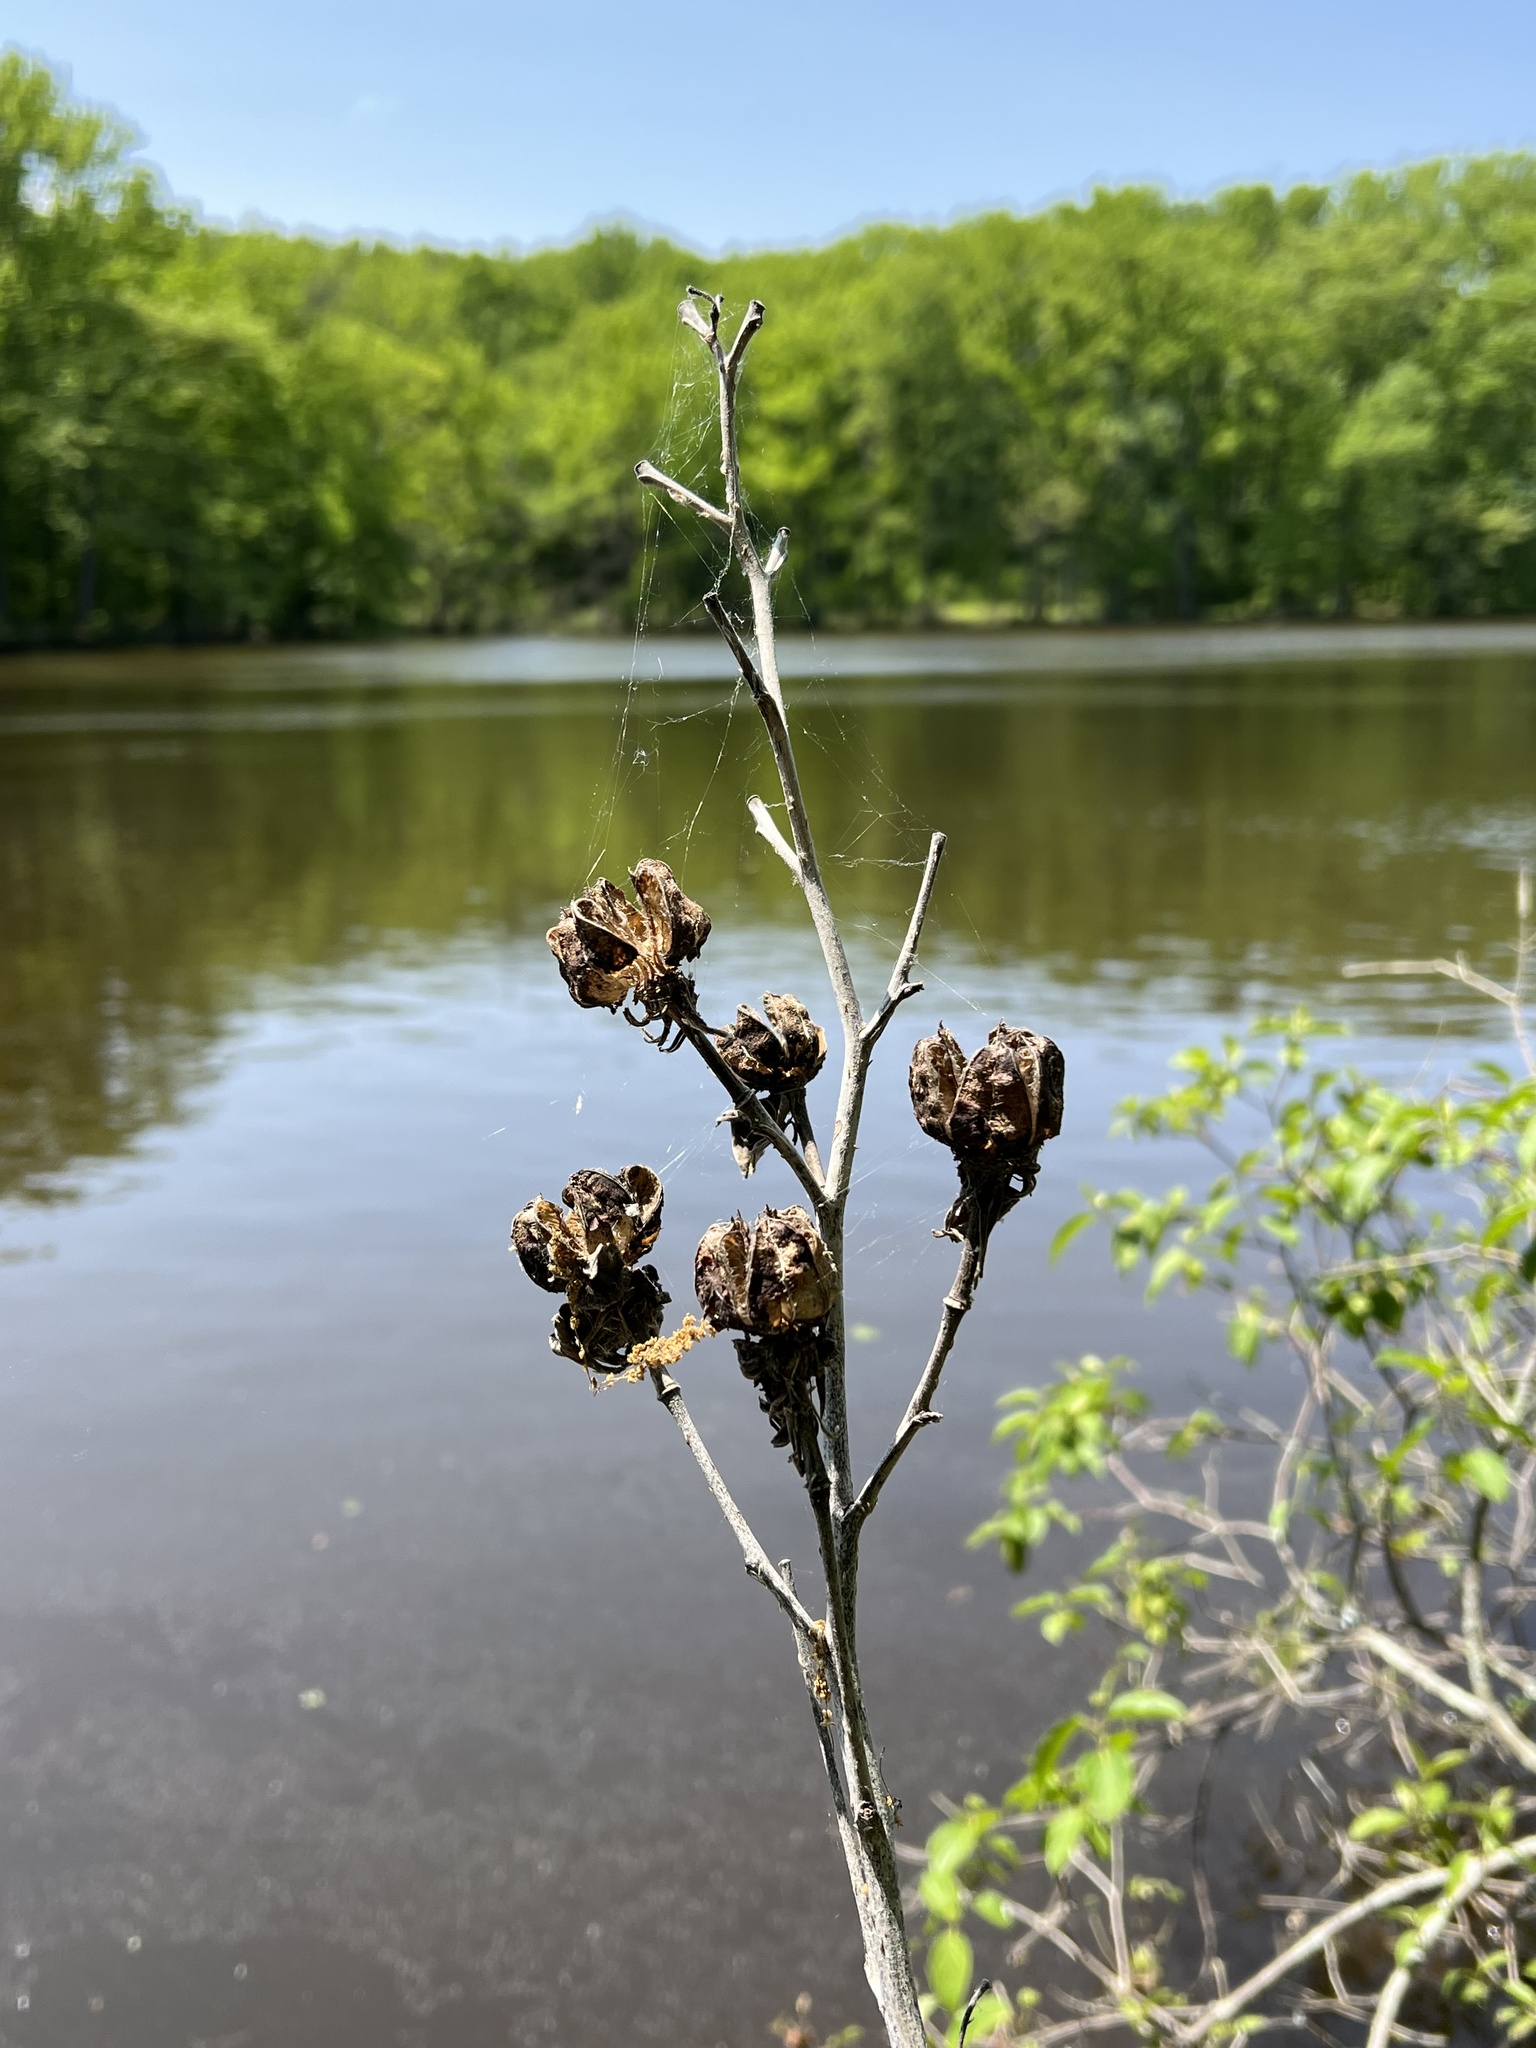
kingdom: Plantae
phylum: Tracheophyta
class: Magnoliopsida
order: Malvales
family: Malvaceae
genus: Hibiscus
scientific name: Hibiscus moscheutos
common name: Common rose-mallow
